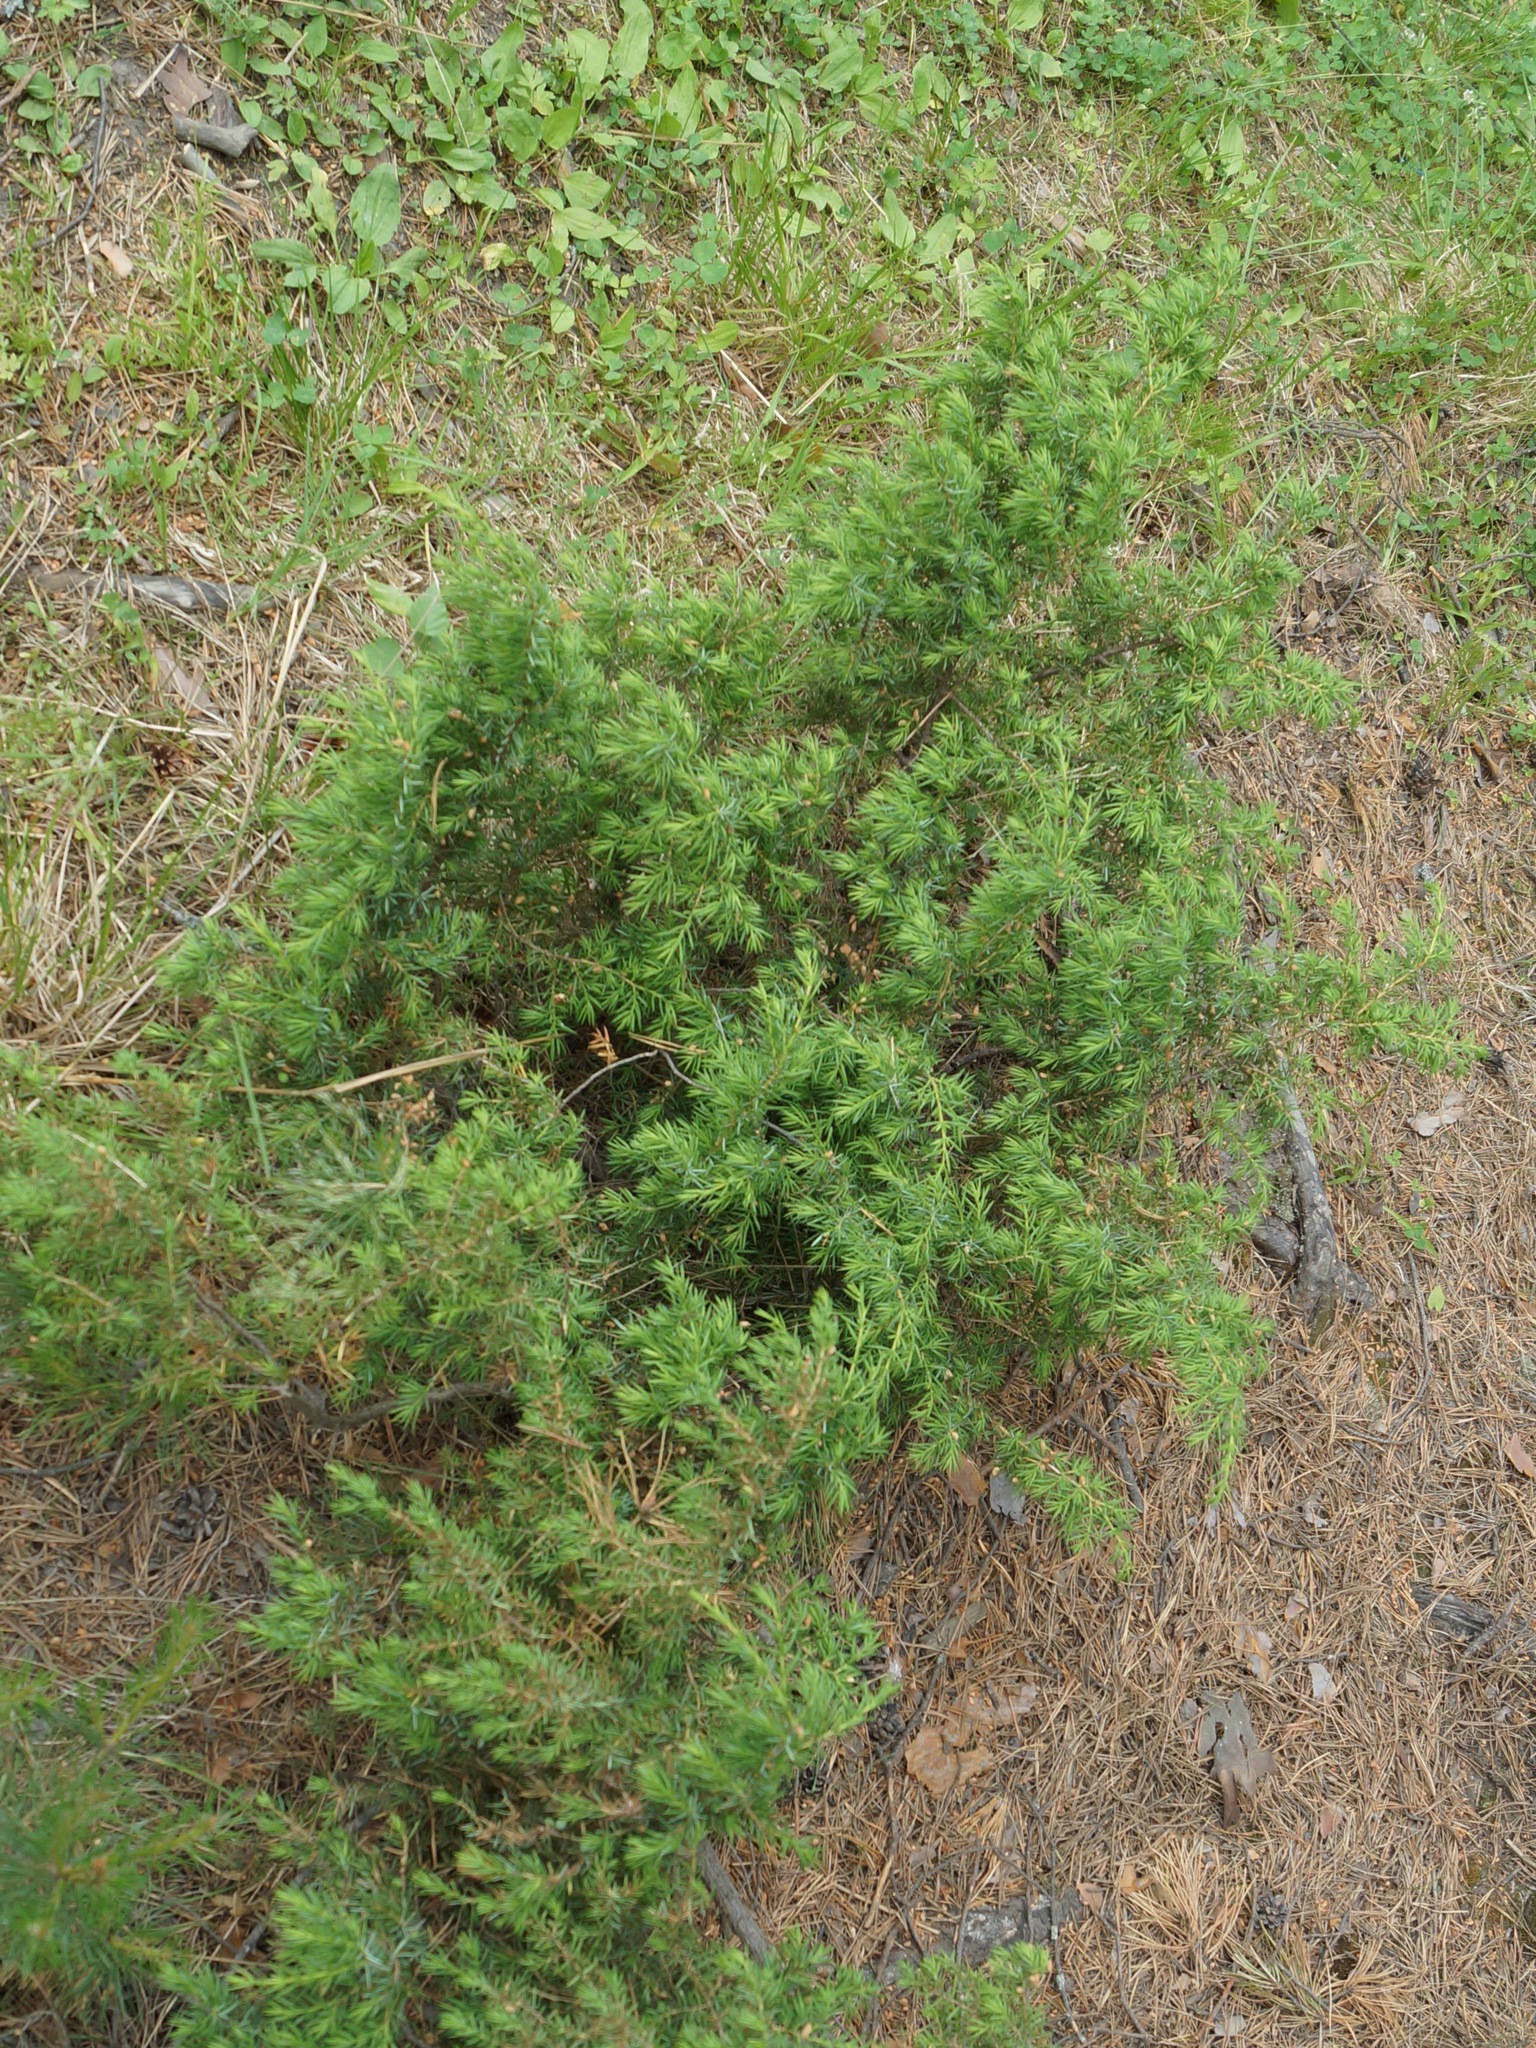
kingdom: Plantae
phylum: Tracheophyta
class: Pinopsida
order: Pinales
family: Cupressaceae
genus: Juniperus
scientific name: Juniperus communis
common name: Common juniper
